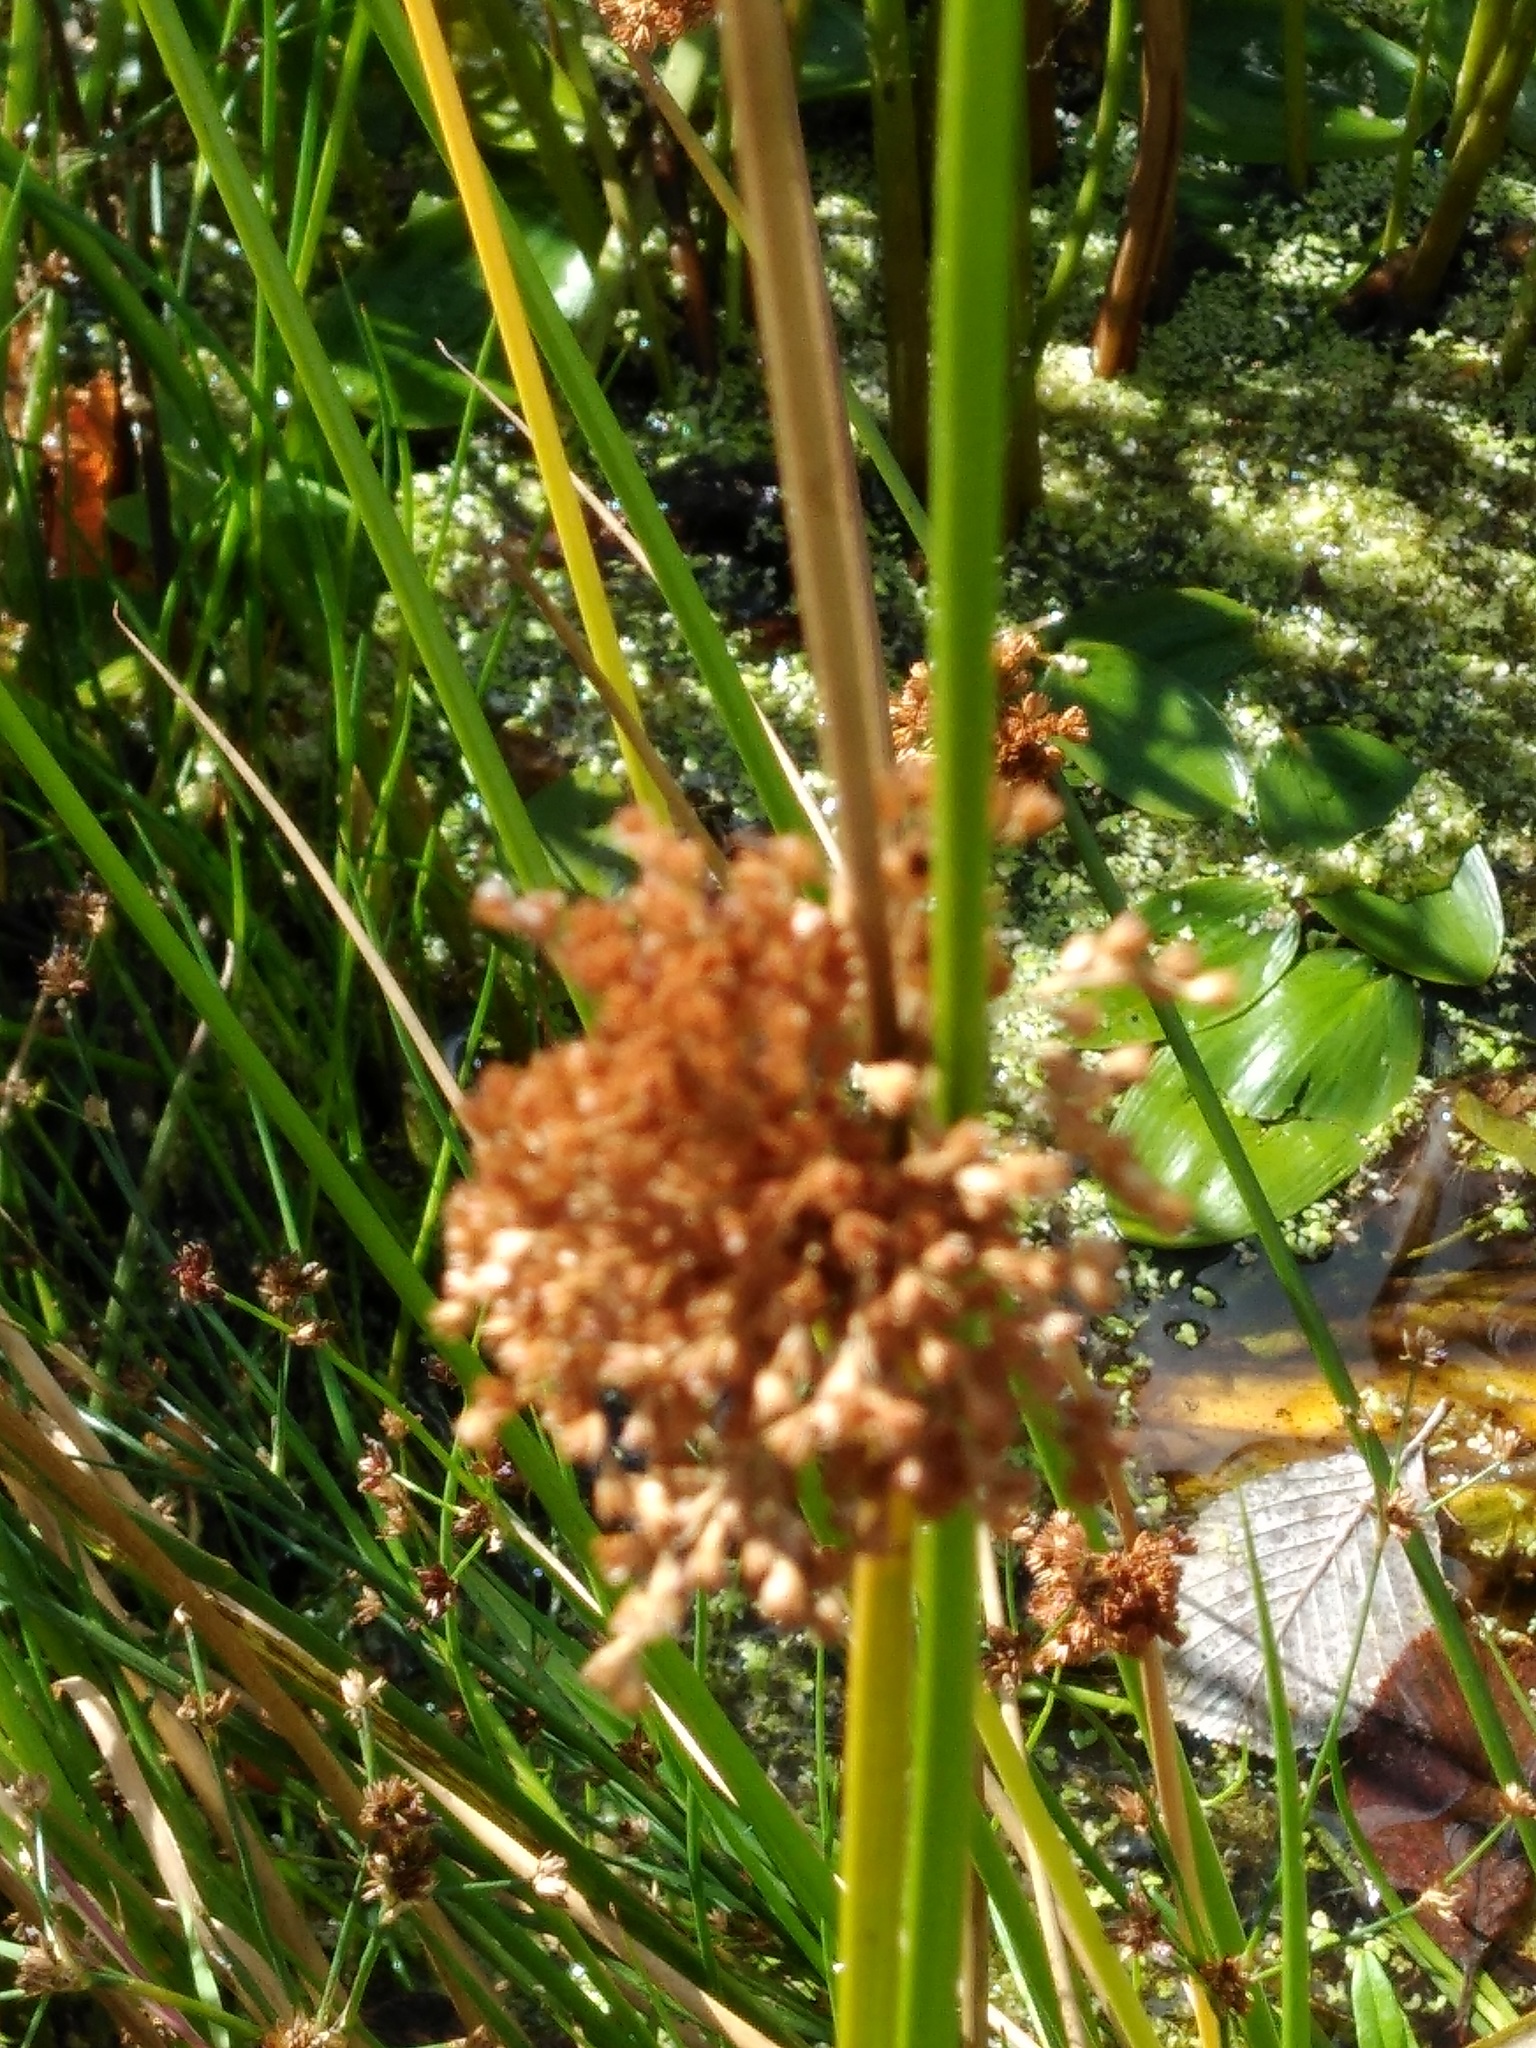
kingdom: Plantae
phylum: Tracheophyta
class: Liliopsida
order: Poales
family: Juncaceae
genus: Juncus
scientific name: Juncus effusus
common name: Soft rush
